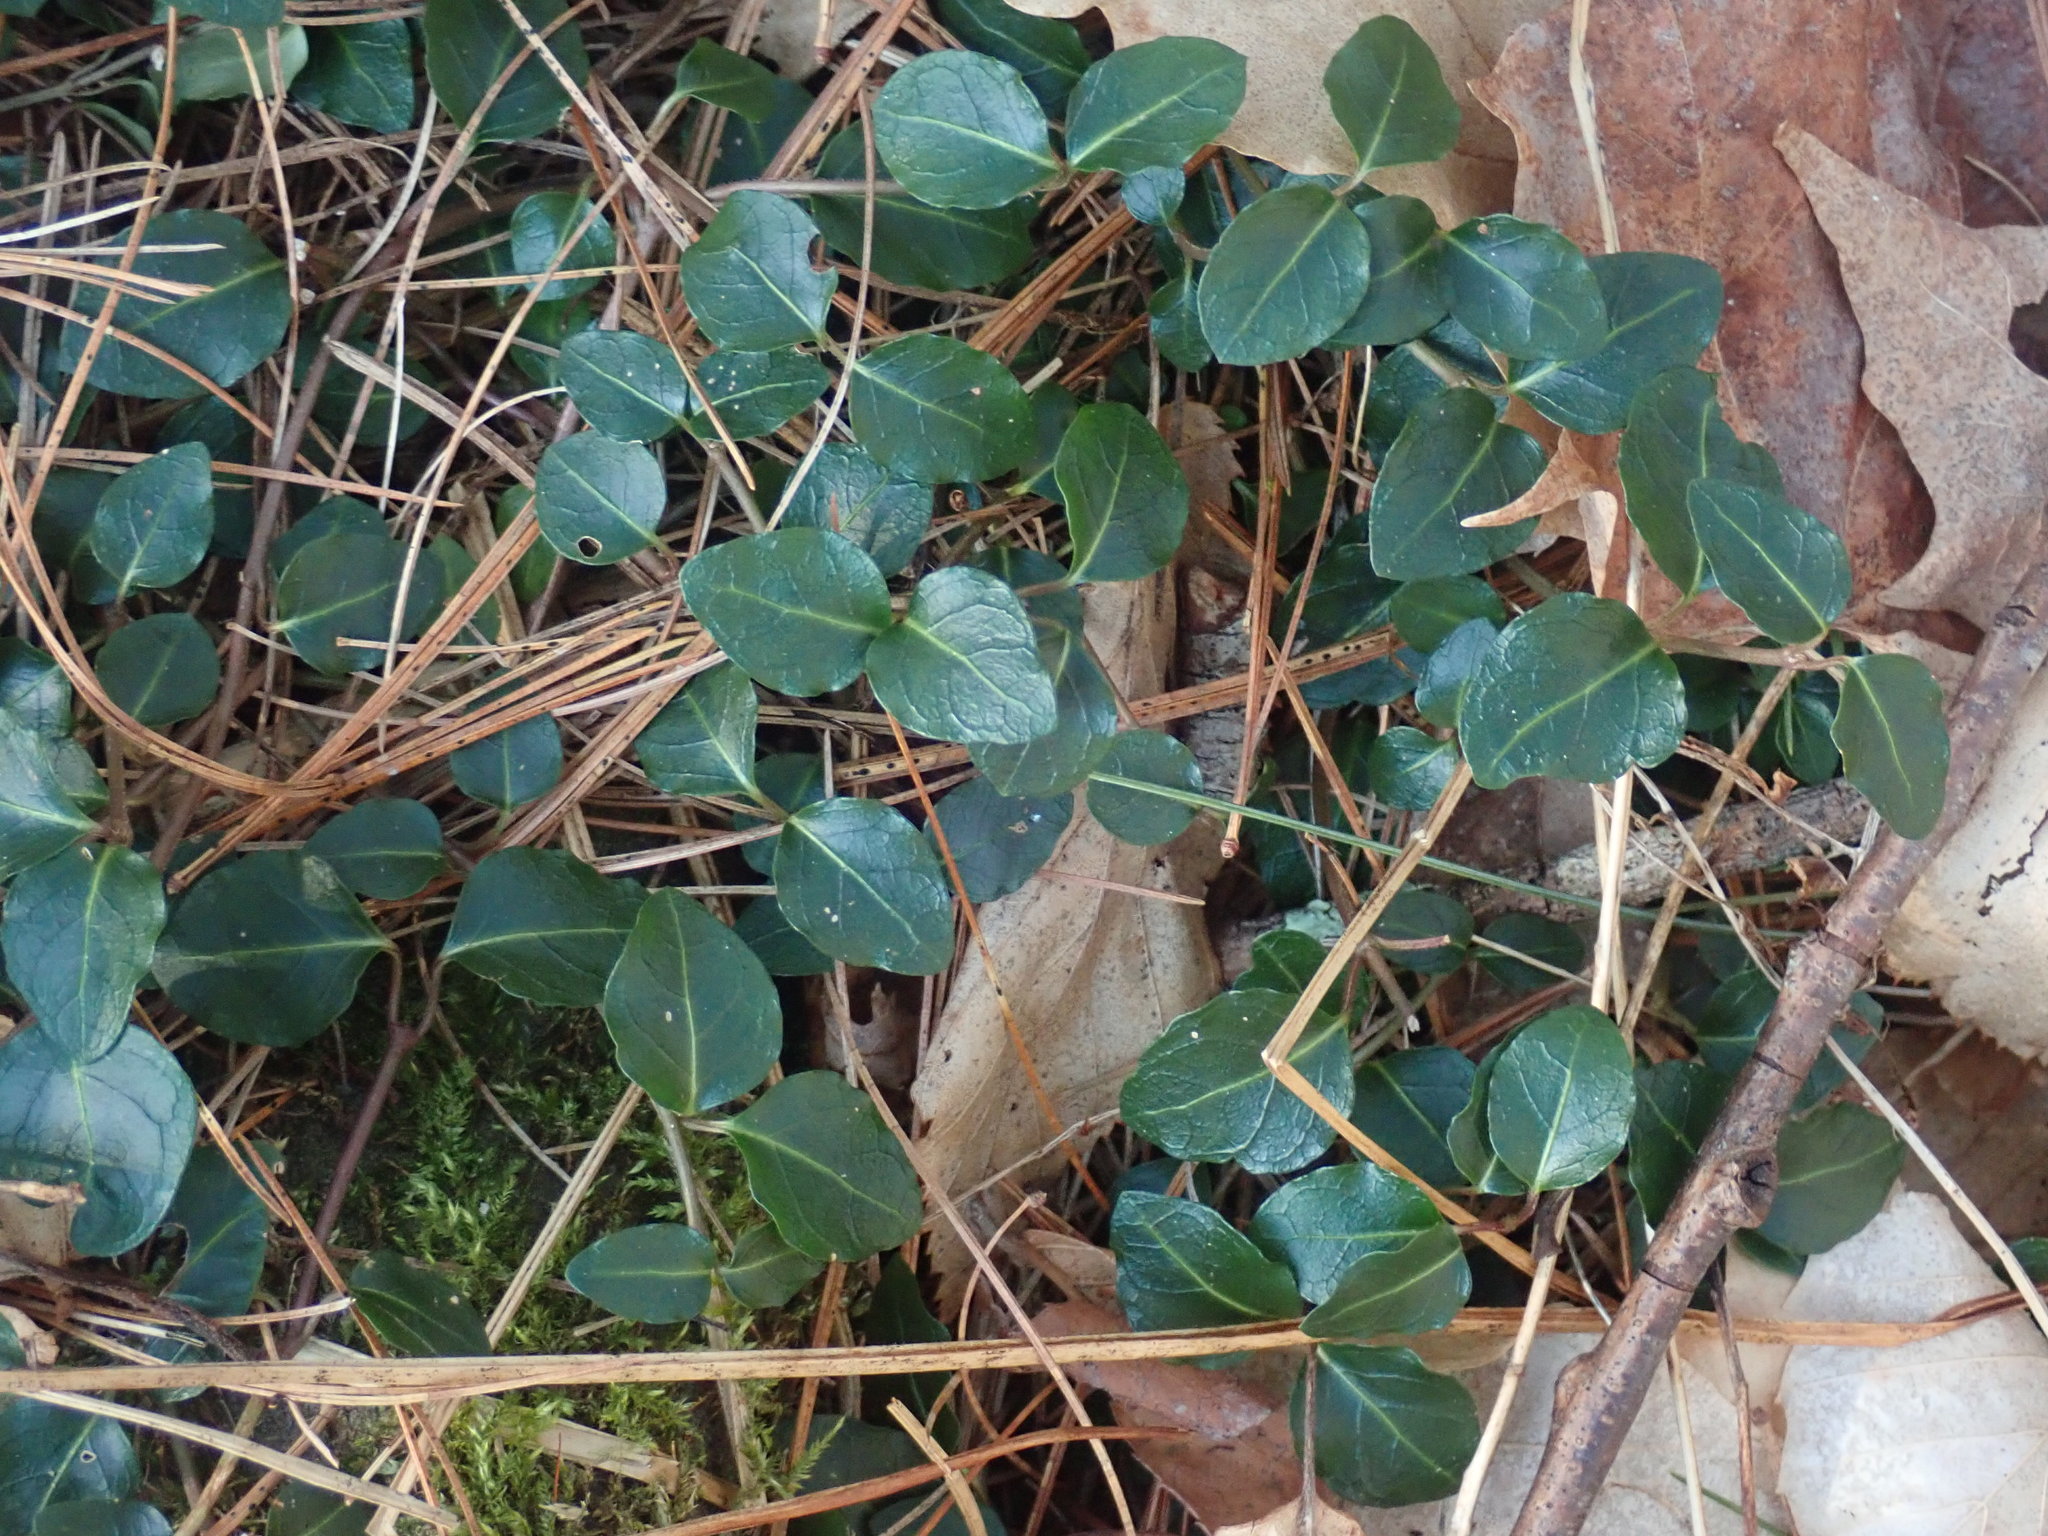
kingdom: Plantae
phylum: Tracheophyta
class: Magnoliopsida
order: Gentianales
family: Rubiaceae
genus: Mitchella
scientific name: Mitchella repens
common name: Partridge-berry
